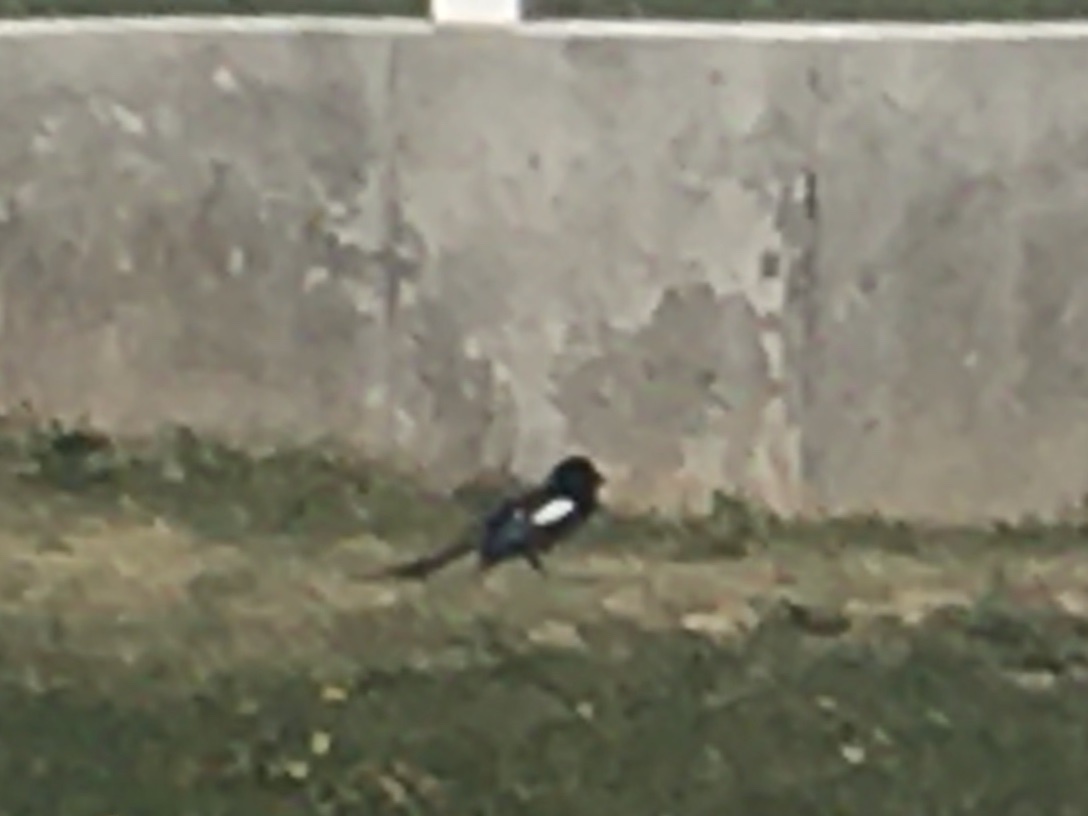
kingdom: Animalia
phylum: Chordata
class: Aves
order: Passeriformes
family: Corvidae
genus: Pica
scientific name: Pica hudsonia
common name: Black-billed magpie
